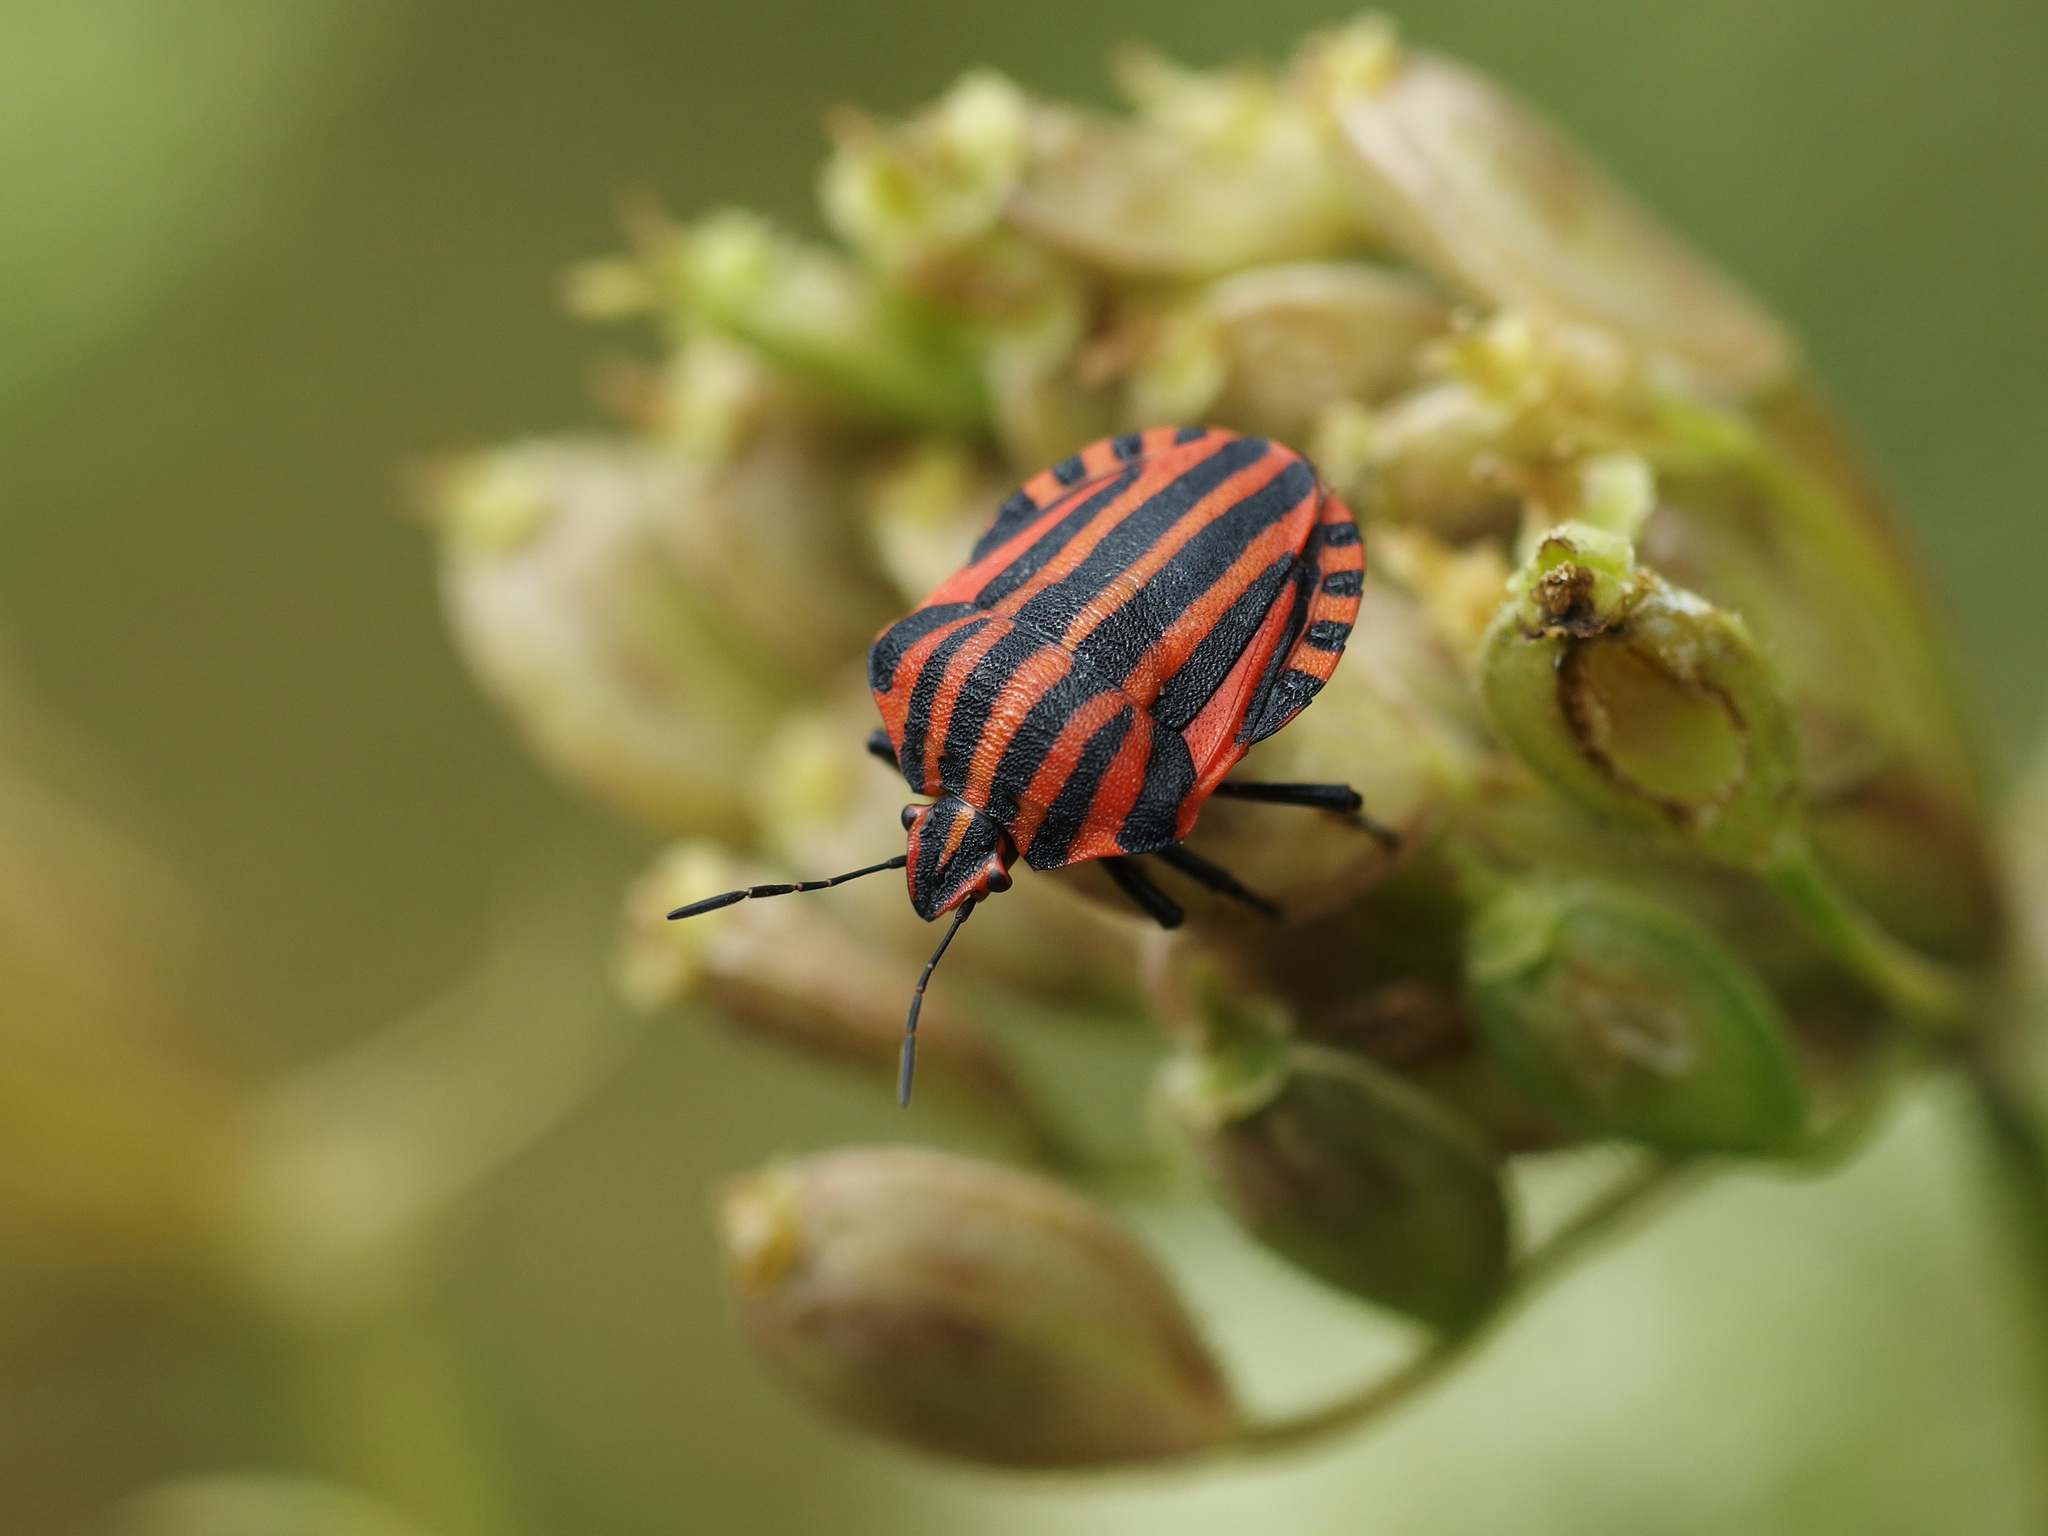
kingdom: Animalia
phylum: Arthropoda
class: Insecta
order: Hemiptera
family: Pentatomidae
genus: Graphosoma
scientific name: Graphosoma italicum
